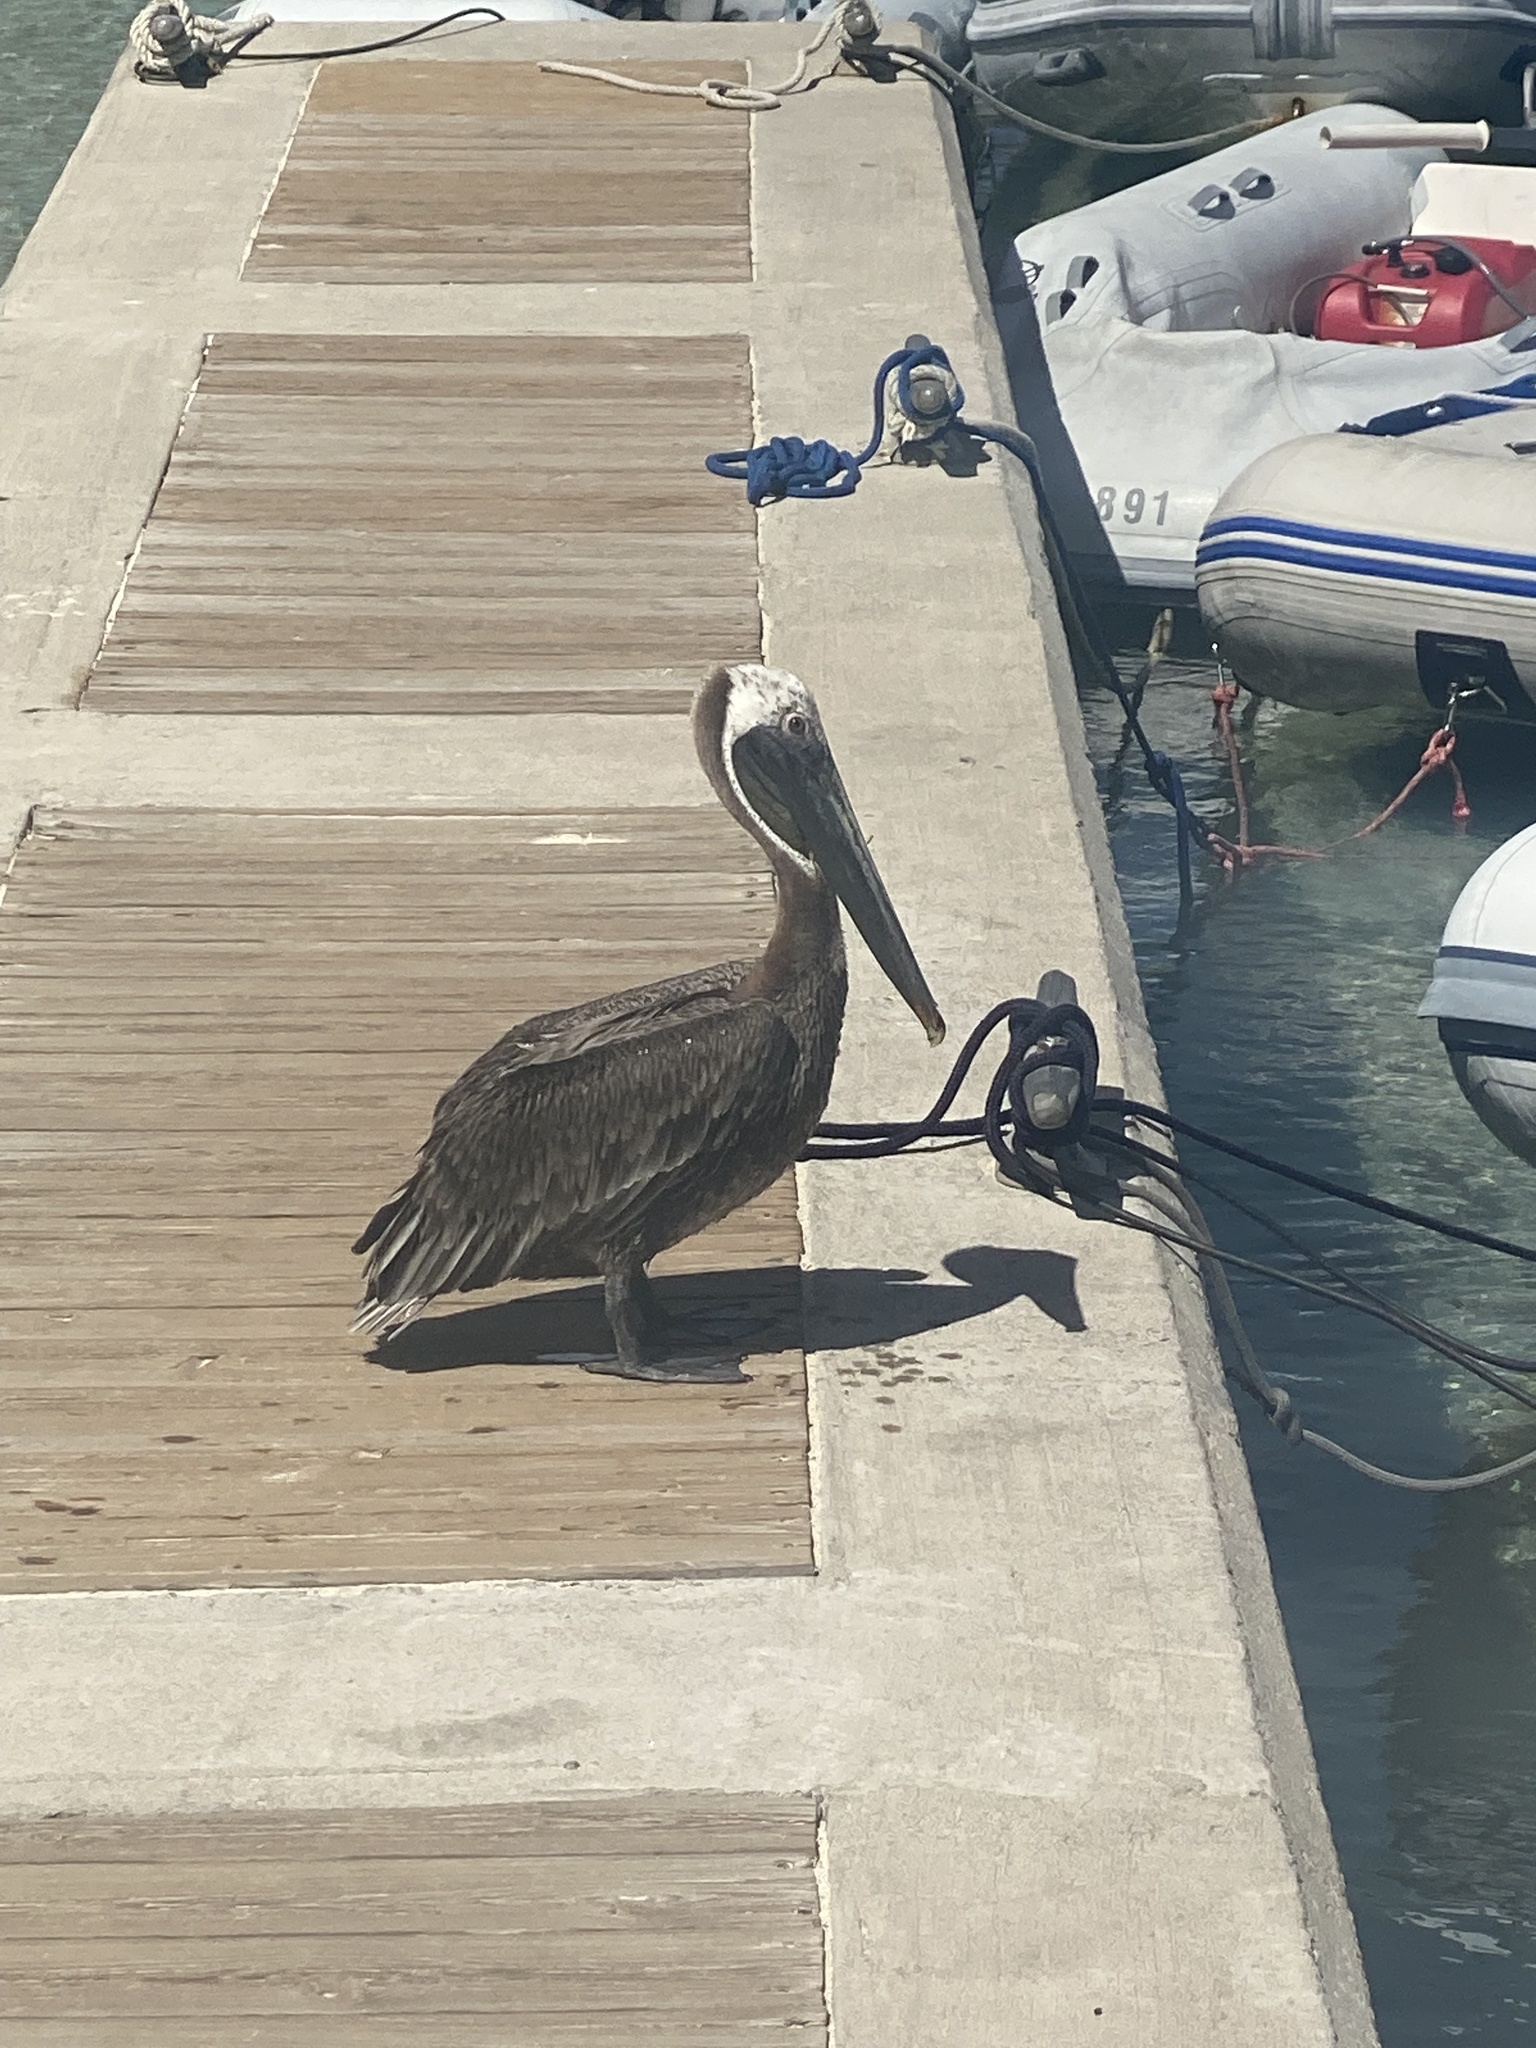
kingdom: Animalia
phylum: Chordata
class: Aves
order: Pelecaniformes
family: Pelecanidae
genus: Pelecanus
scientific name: Pelecanus occidentalis
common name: Brown pelican
